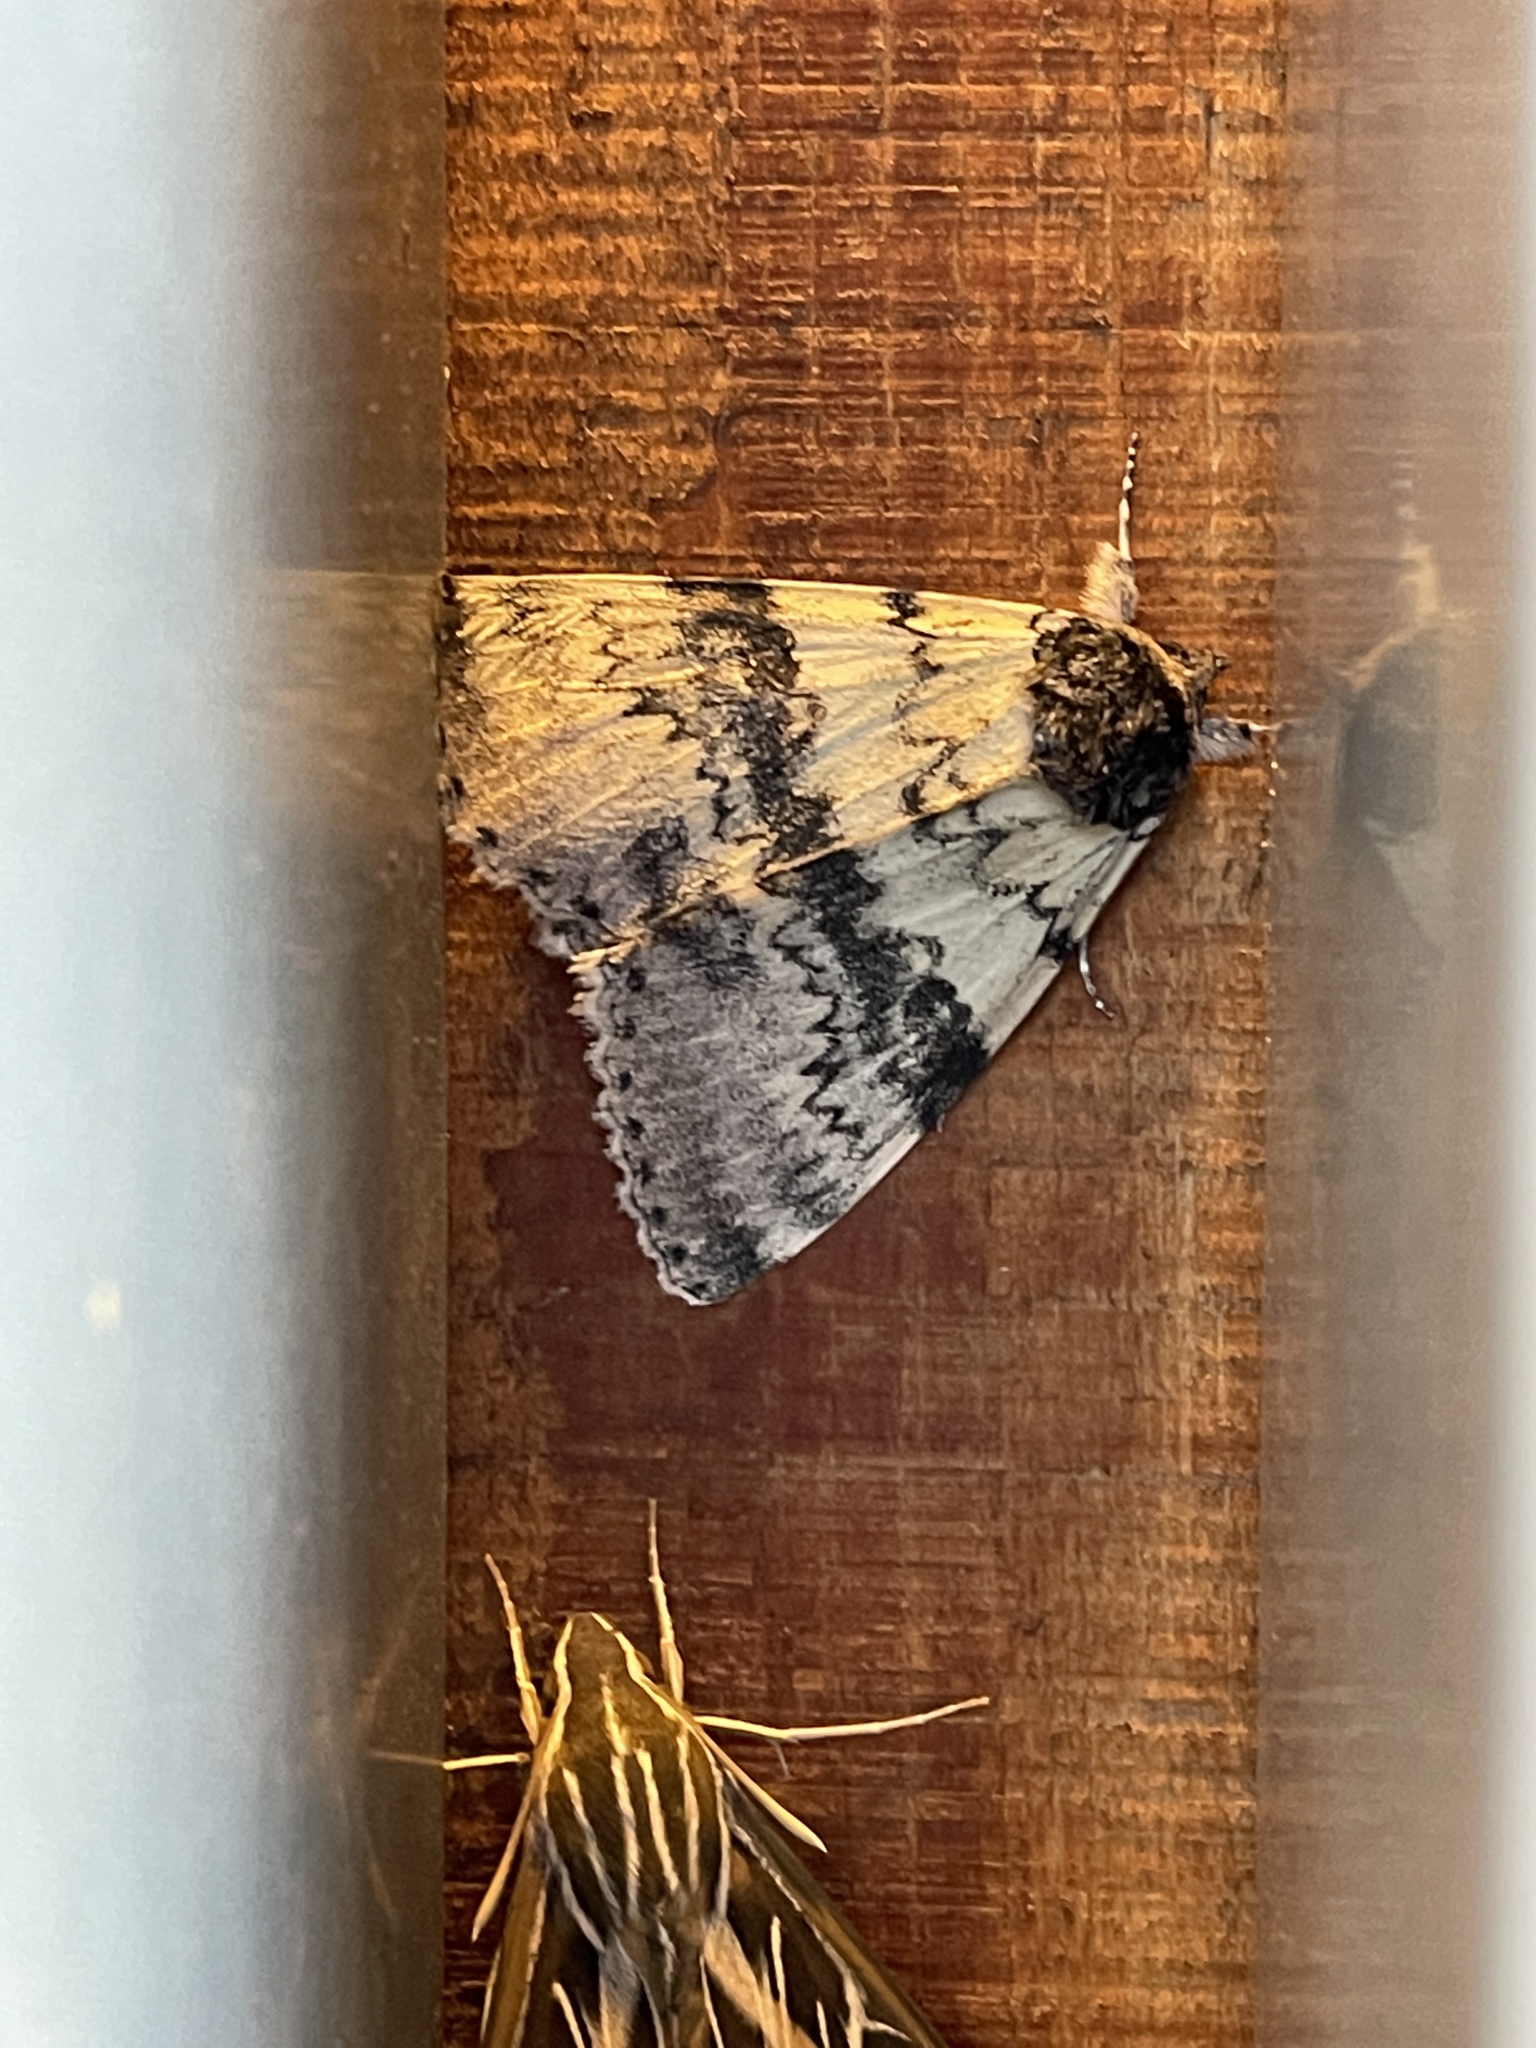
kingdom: Animalia
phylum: Arthropoda
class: Insecta
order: Lepidoptera
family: Erebidae
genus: Catocala
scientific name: Catocala relicta
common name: White underwing
